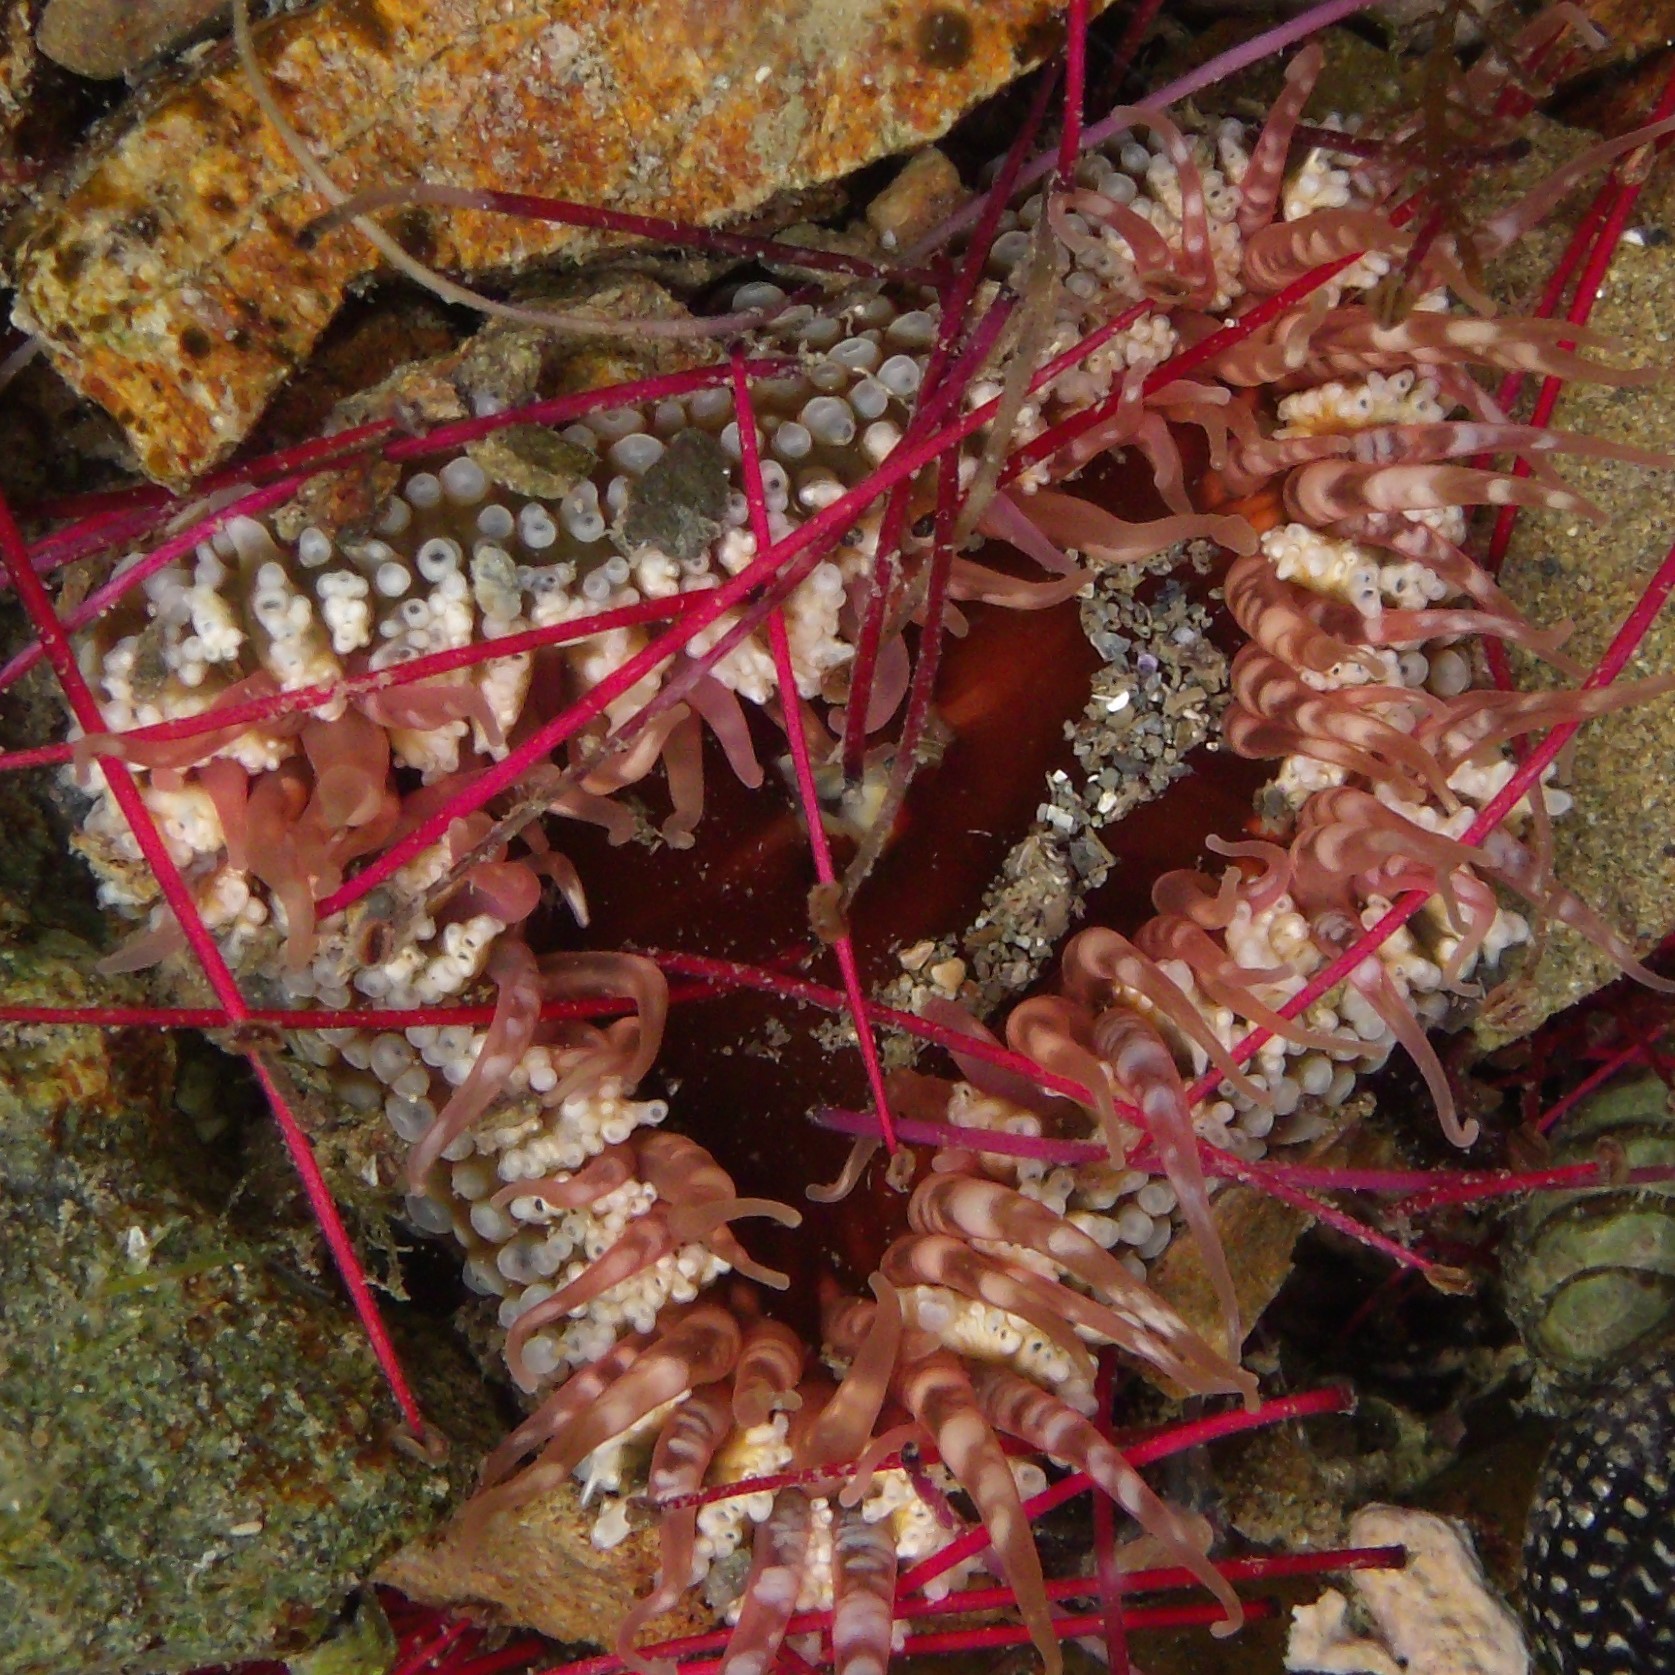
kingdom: Animalia
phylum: Cnidaria
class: Anthozoa
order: Actiniaria
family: Actiniidae
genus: Oulactis
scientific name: Oulactis muscosa
